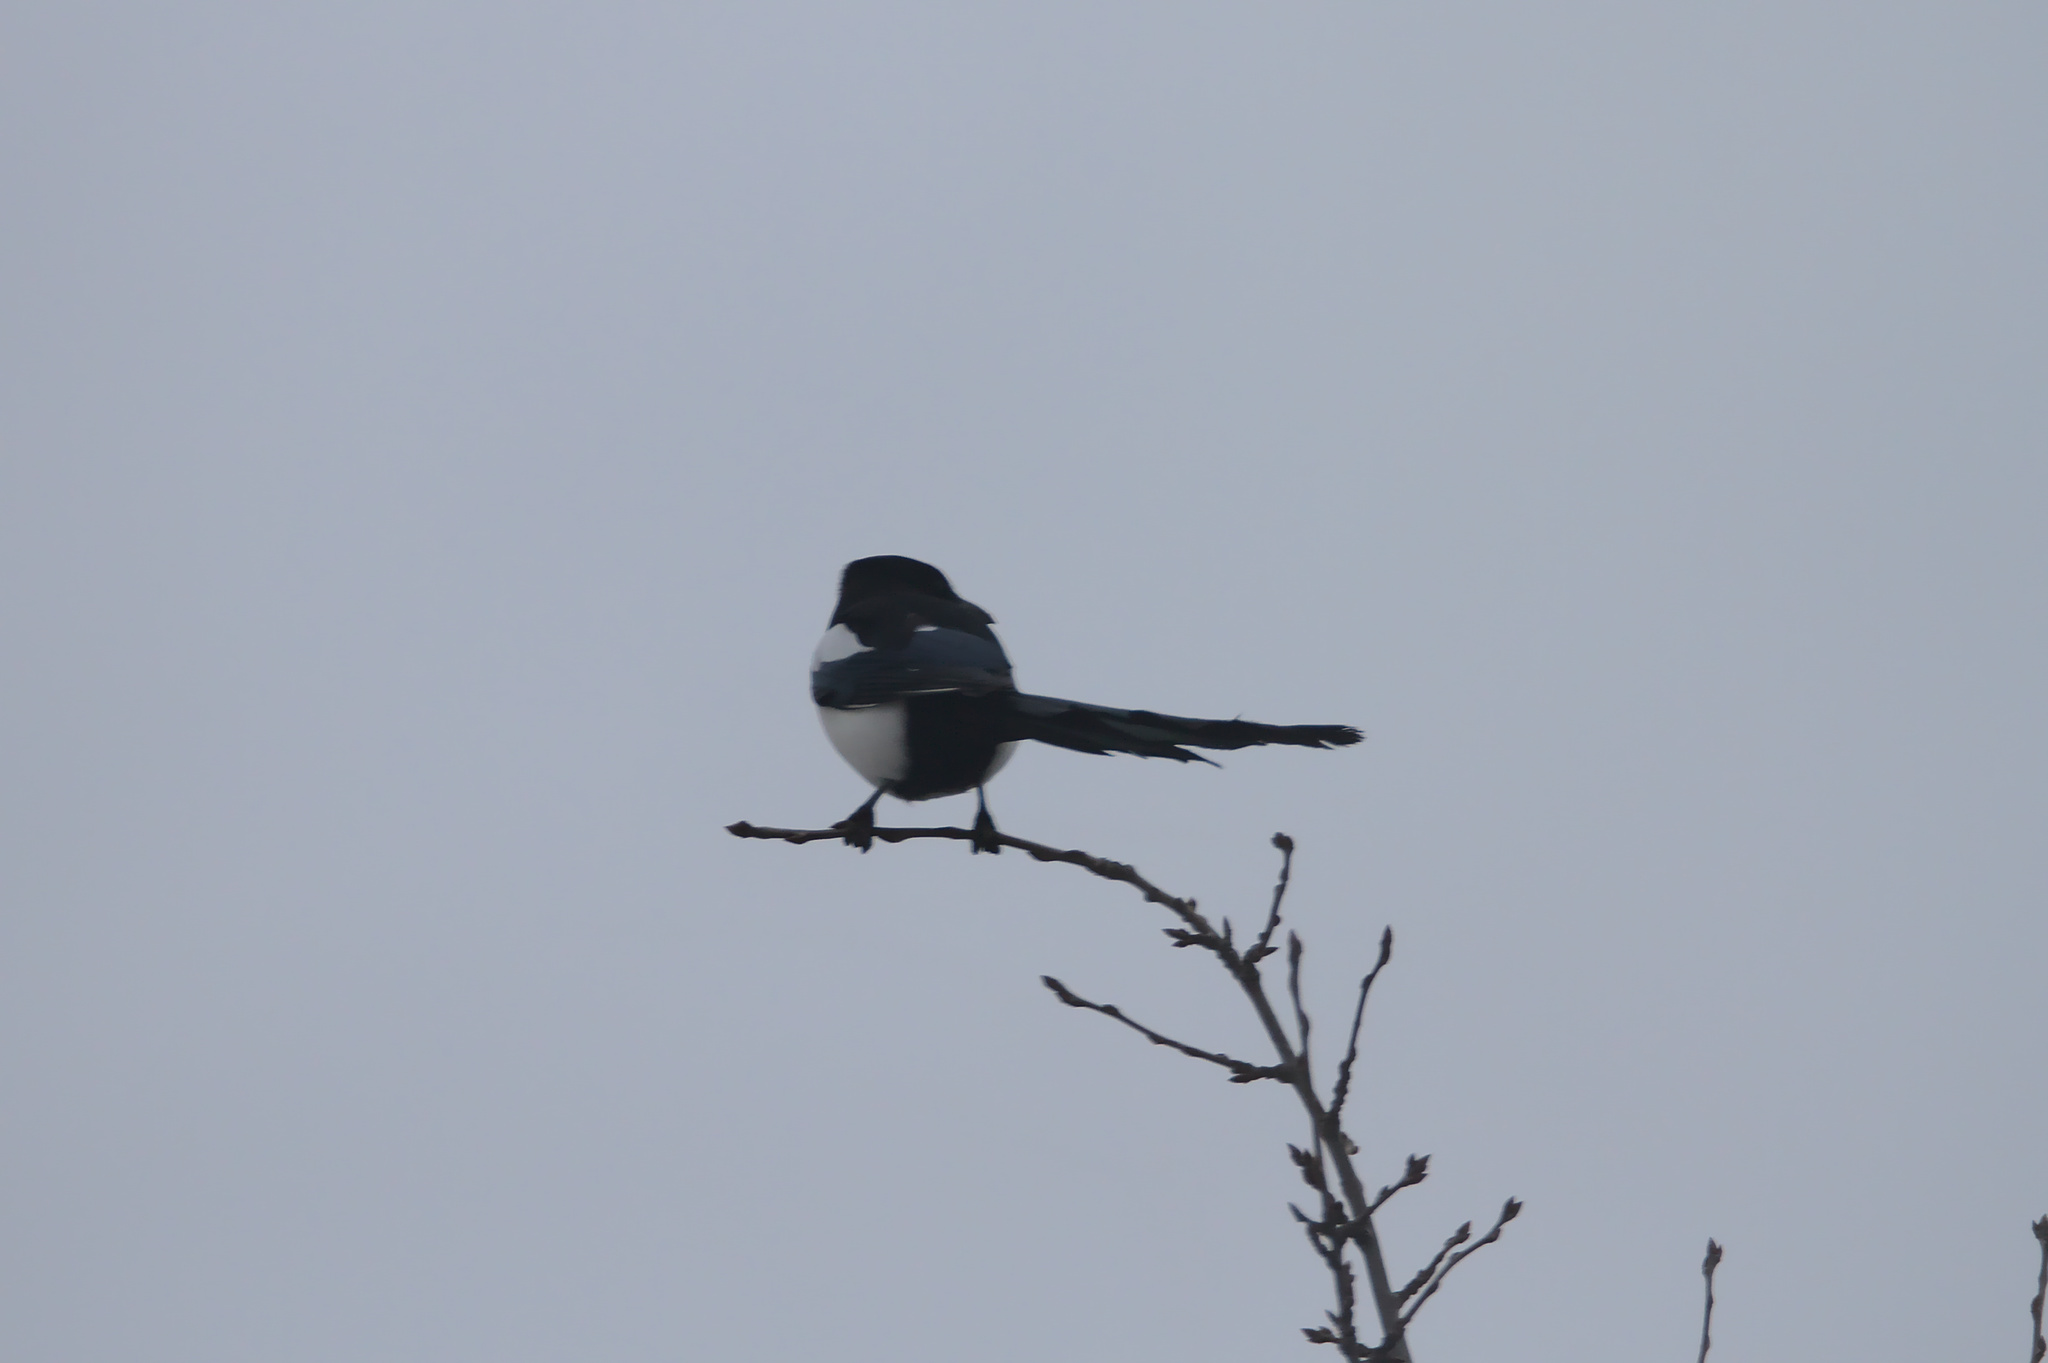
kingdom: Animalia
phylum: Chordata
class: Aves
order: Passeriformes
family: Corvidae
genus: Pica
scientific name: Pica pica
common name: Eurasian magpie
